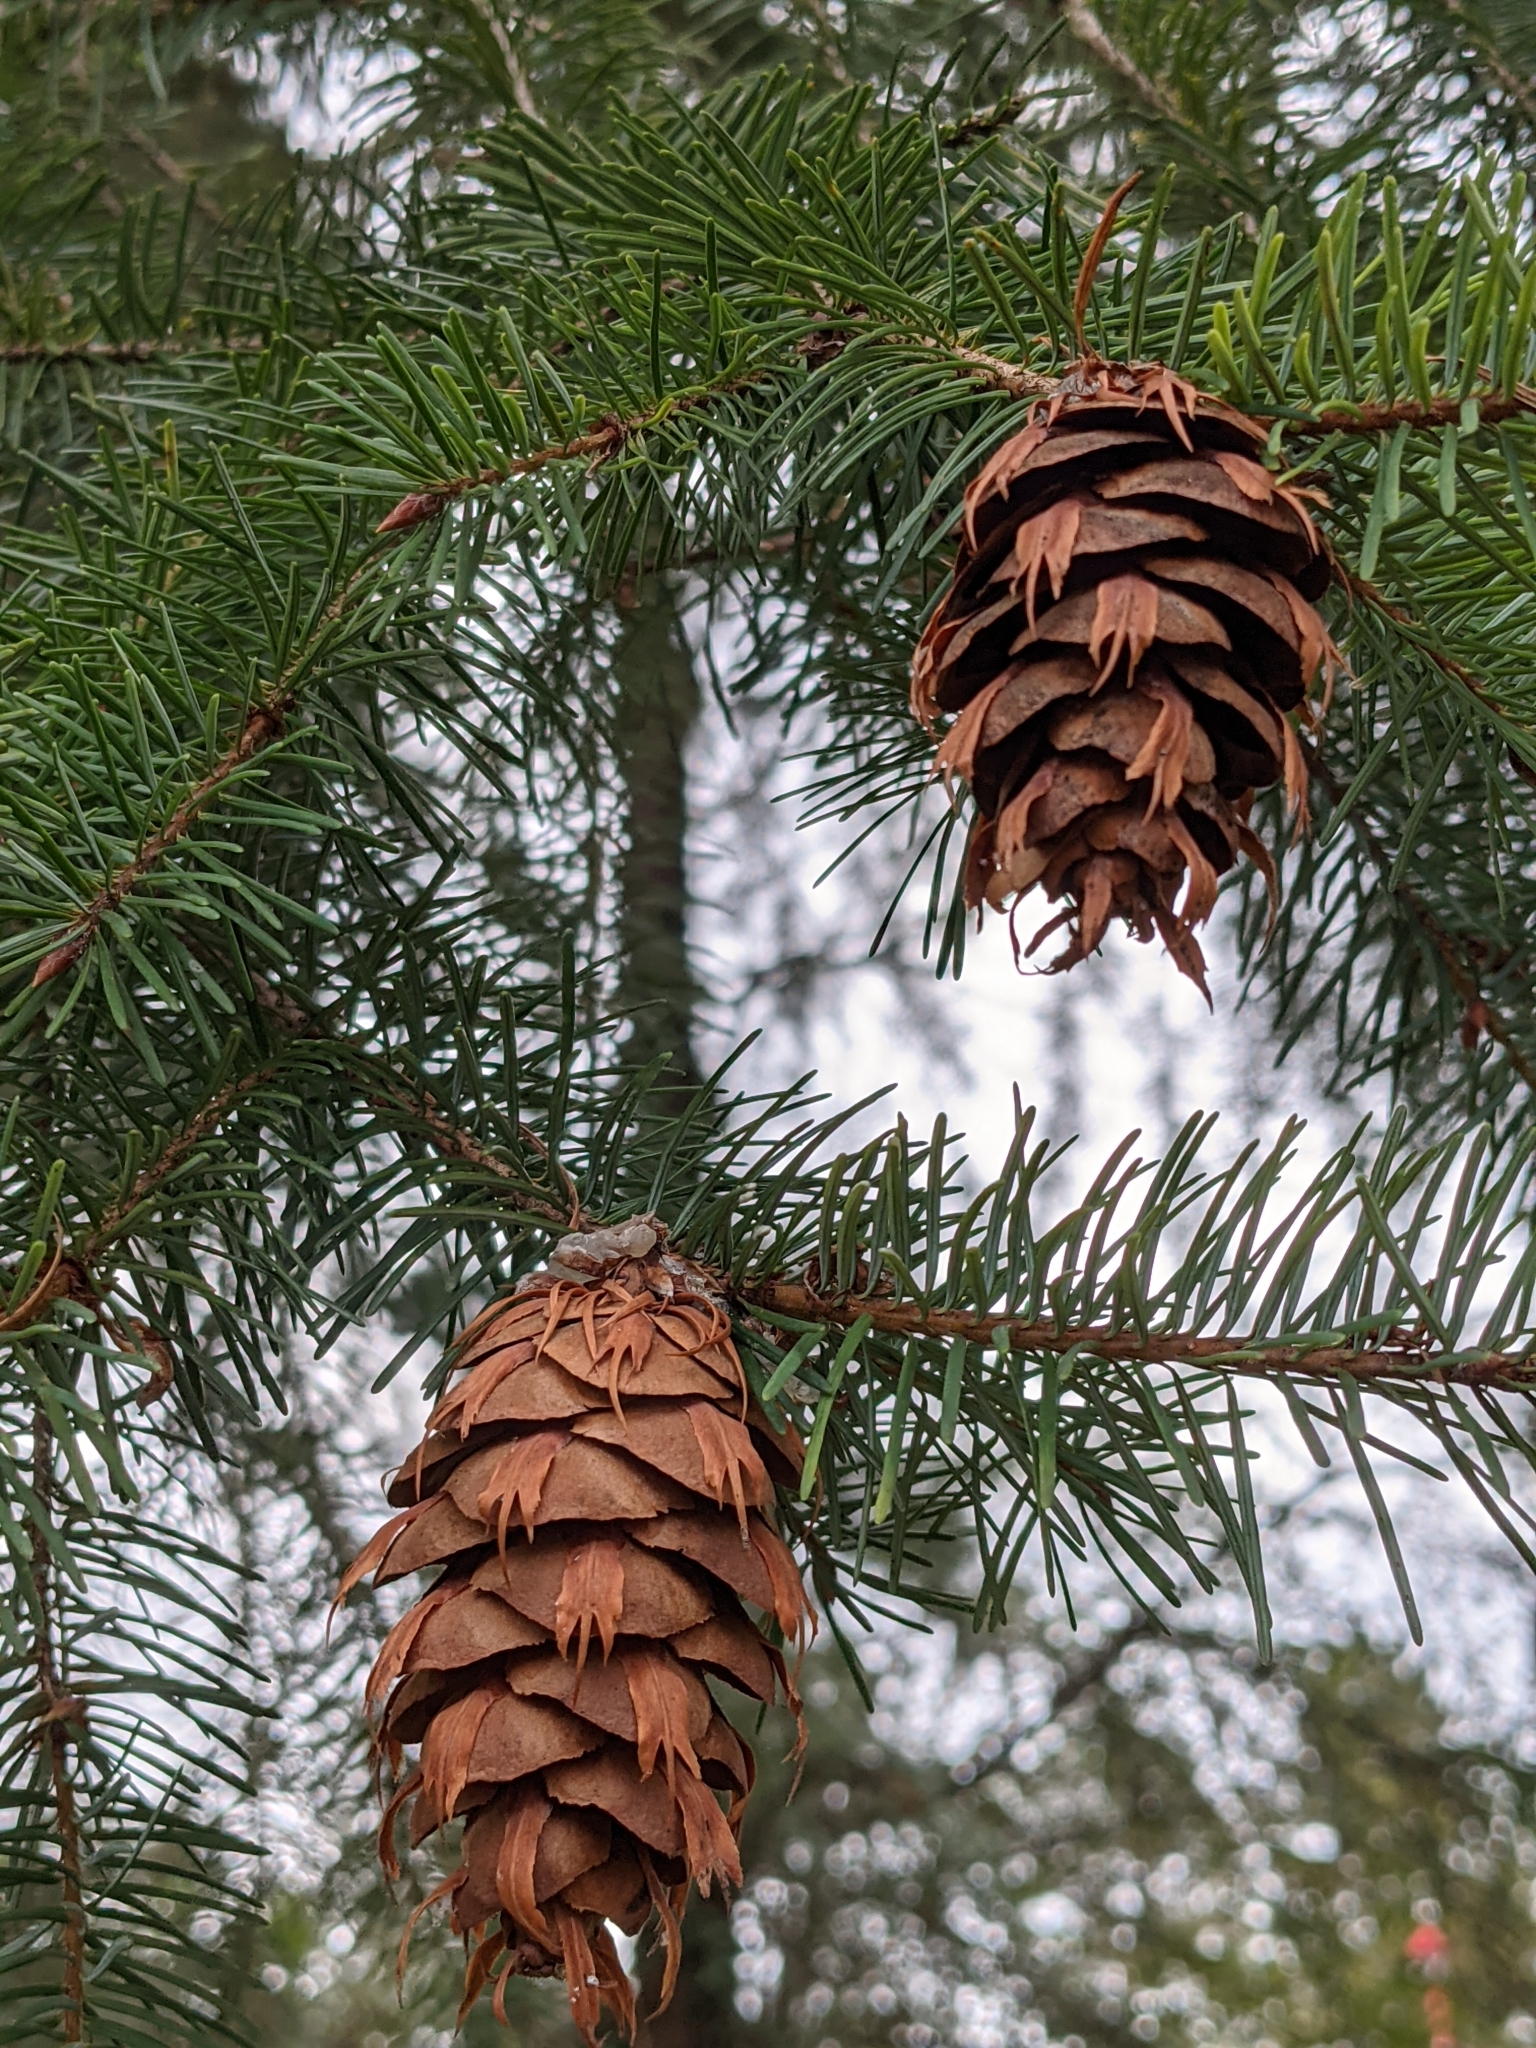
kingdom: Plantae
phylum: Tracheophyta
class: Pinopsida
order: Pinales
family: Pinaceae
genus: Pseudotsuga
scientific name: Pseudotsuga menziesii
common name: Douglas fir
